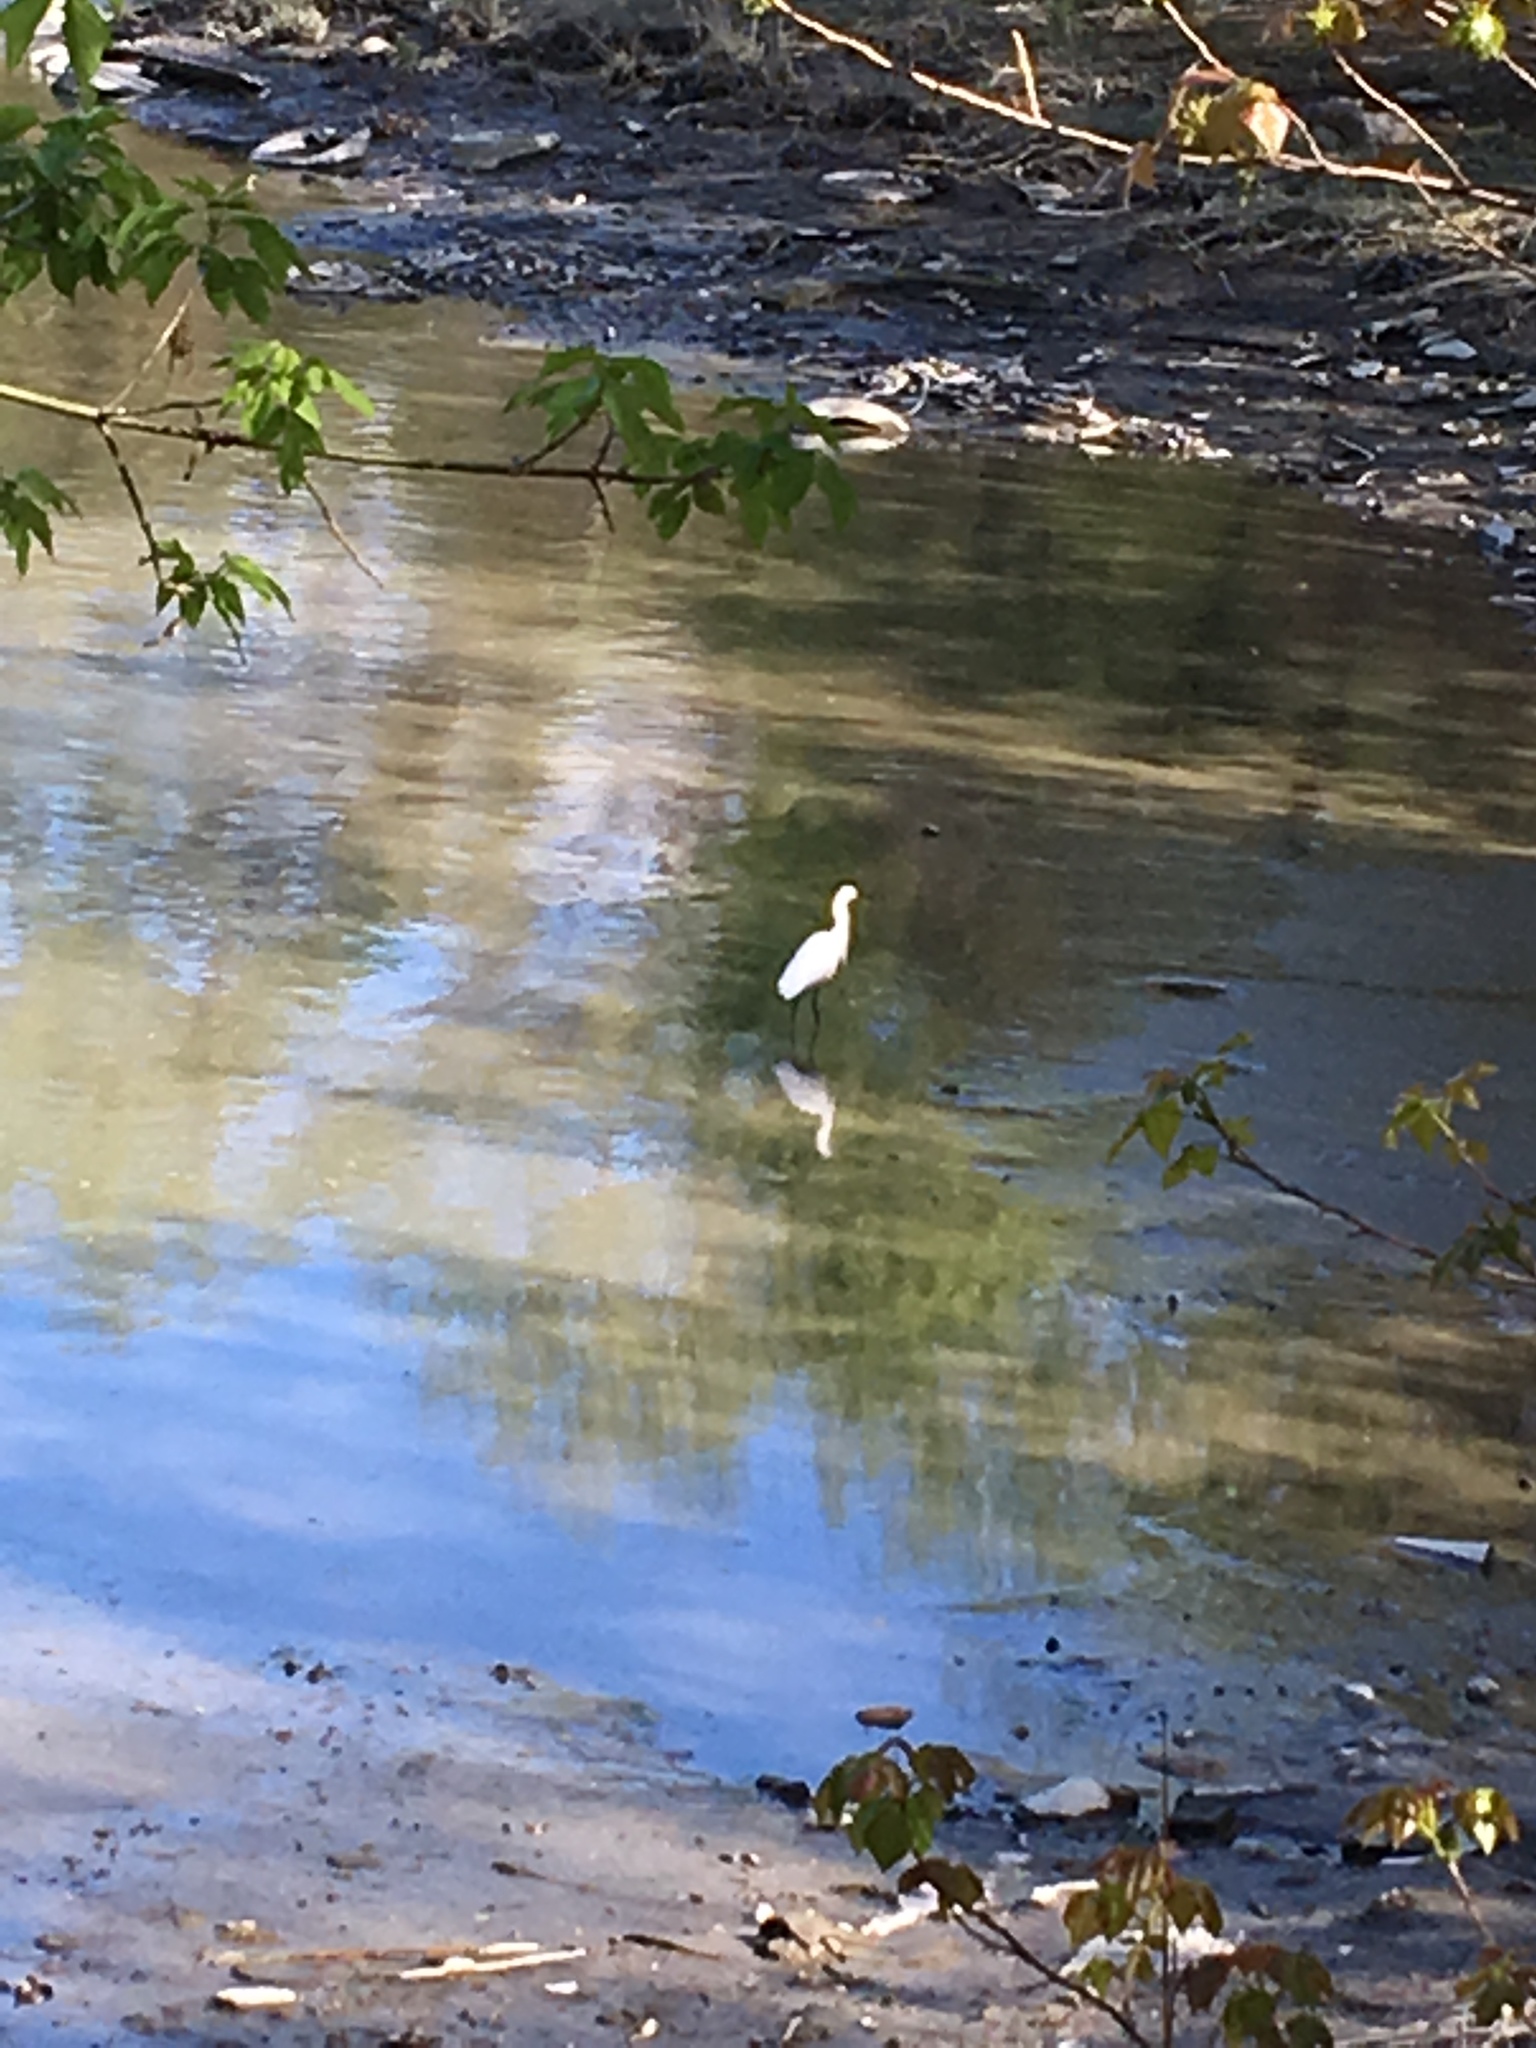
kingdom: Animalia
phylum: Chordata
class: Aves
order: Pelecaniformes
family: Ardeidae
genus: Egretta
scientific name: Egretta thula
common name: Snowy egret
